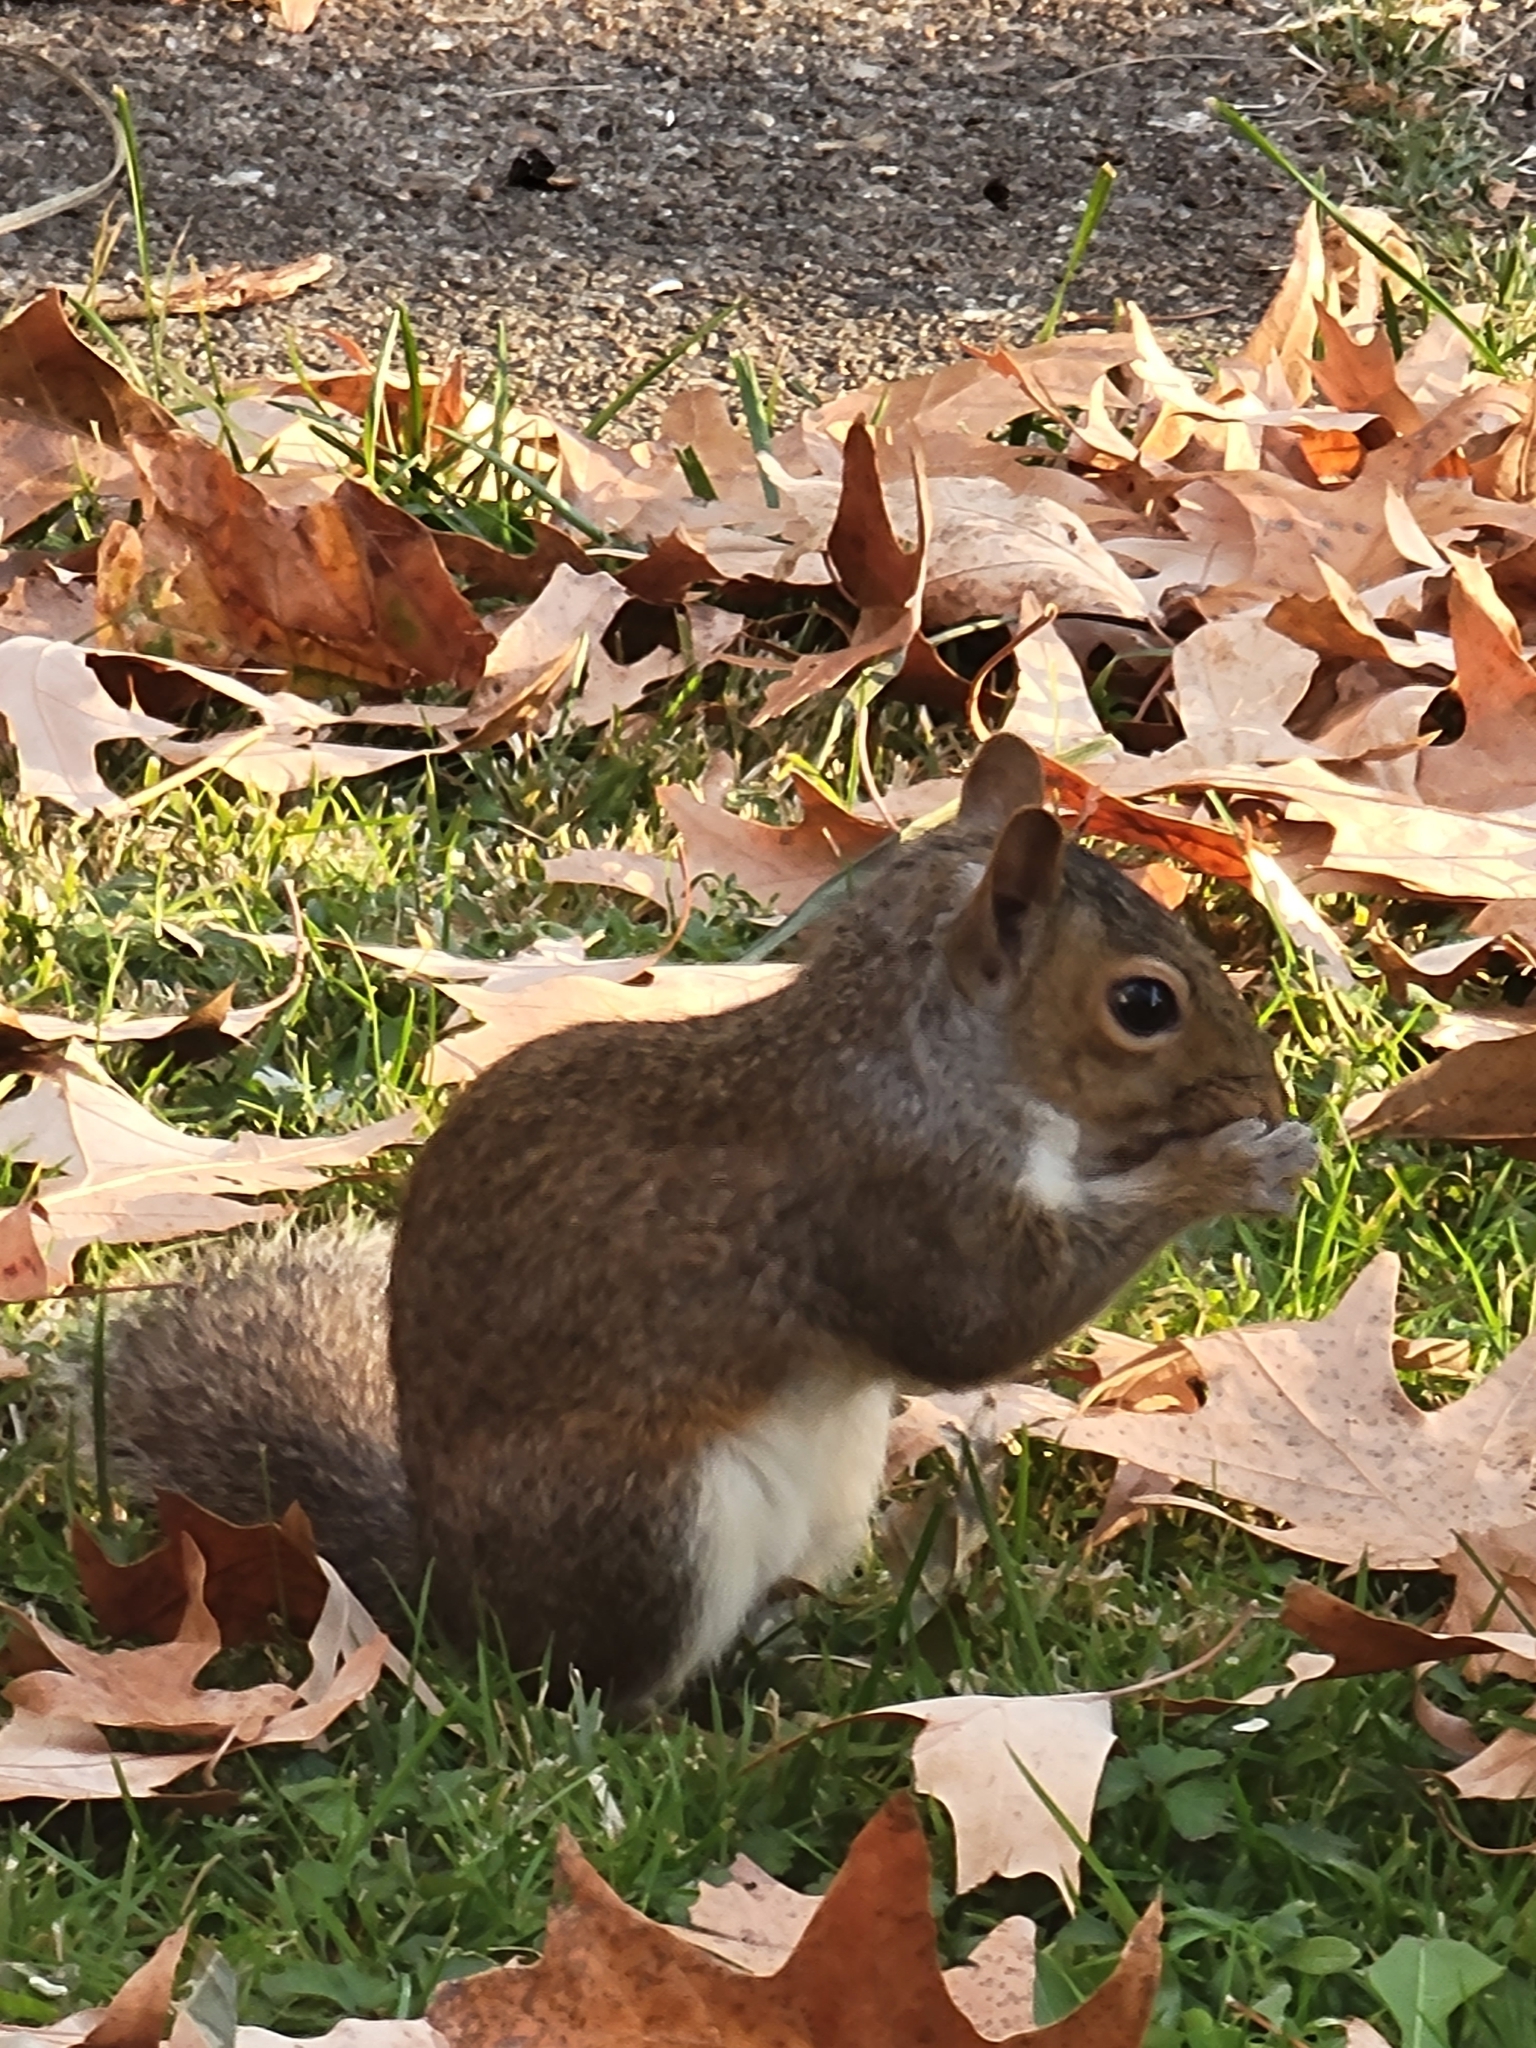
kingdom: Animalia
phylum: Chordata
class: Mammalia
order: Rodentia
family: Sciuridae
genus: Sciurus
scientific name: Sciurus carolinensis
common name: Eastern gray squirrel
